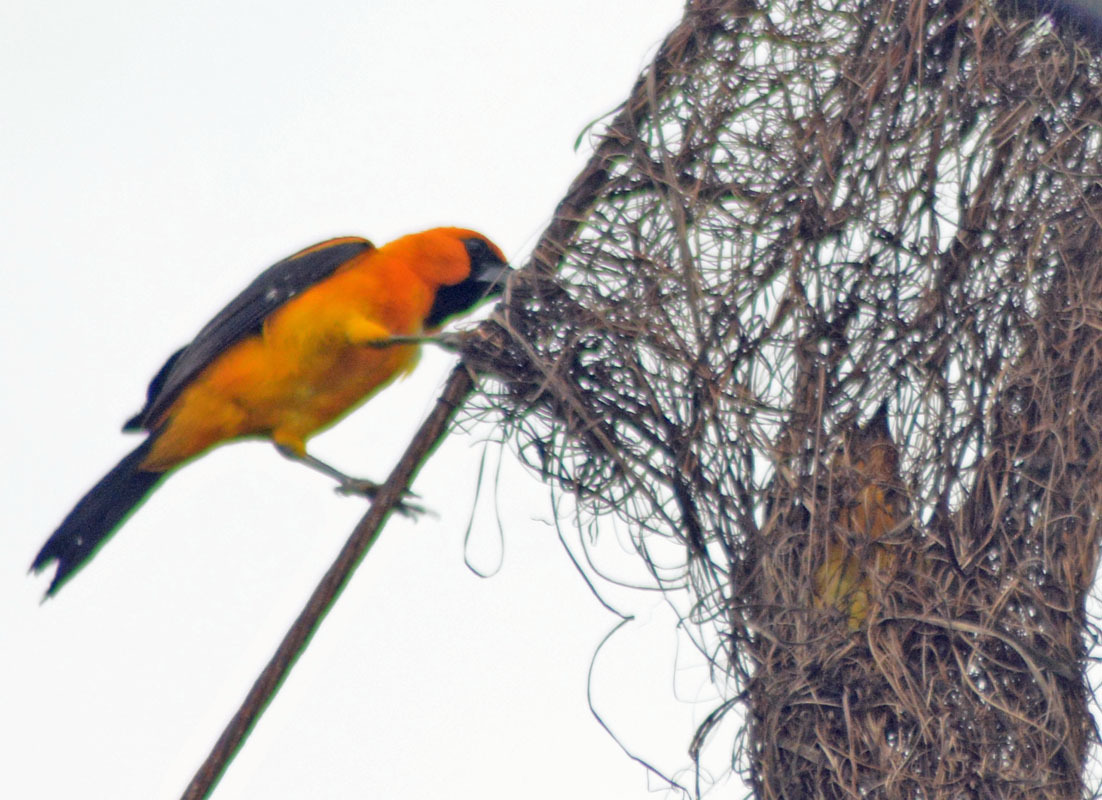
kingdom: Animalia
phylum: Chordata
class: Aves
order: Passeriformes
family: Icteridae
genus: Icterus
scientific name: Icterus gularis
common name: Altamira oriole
